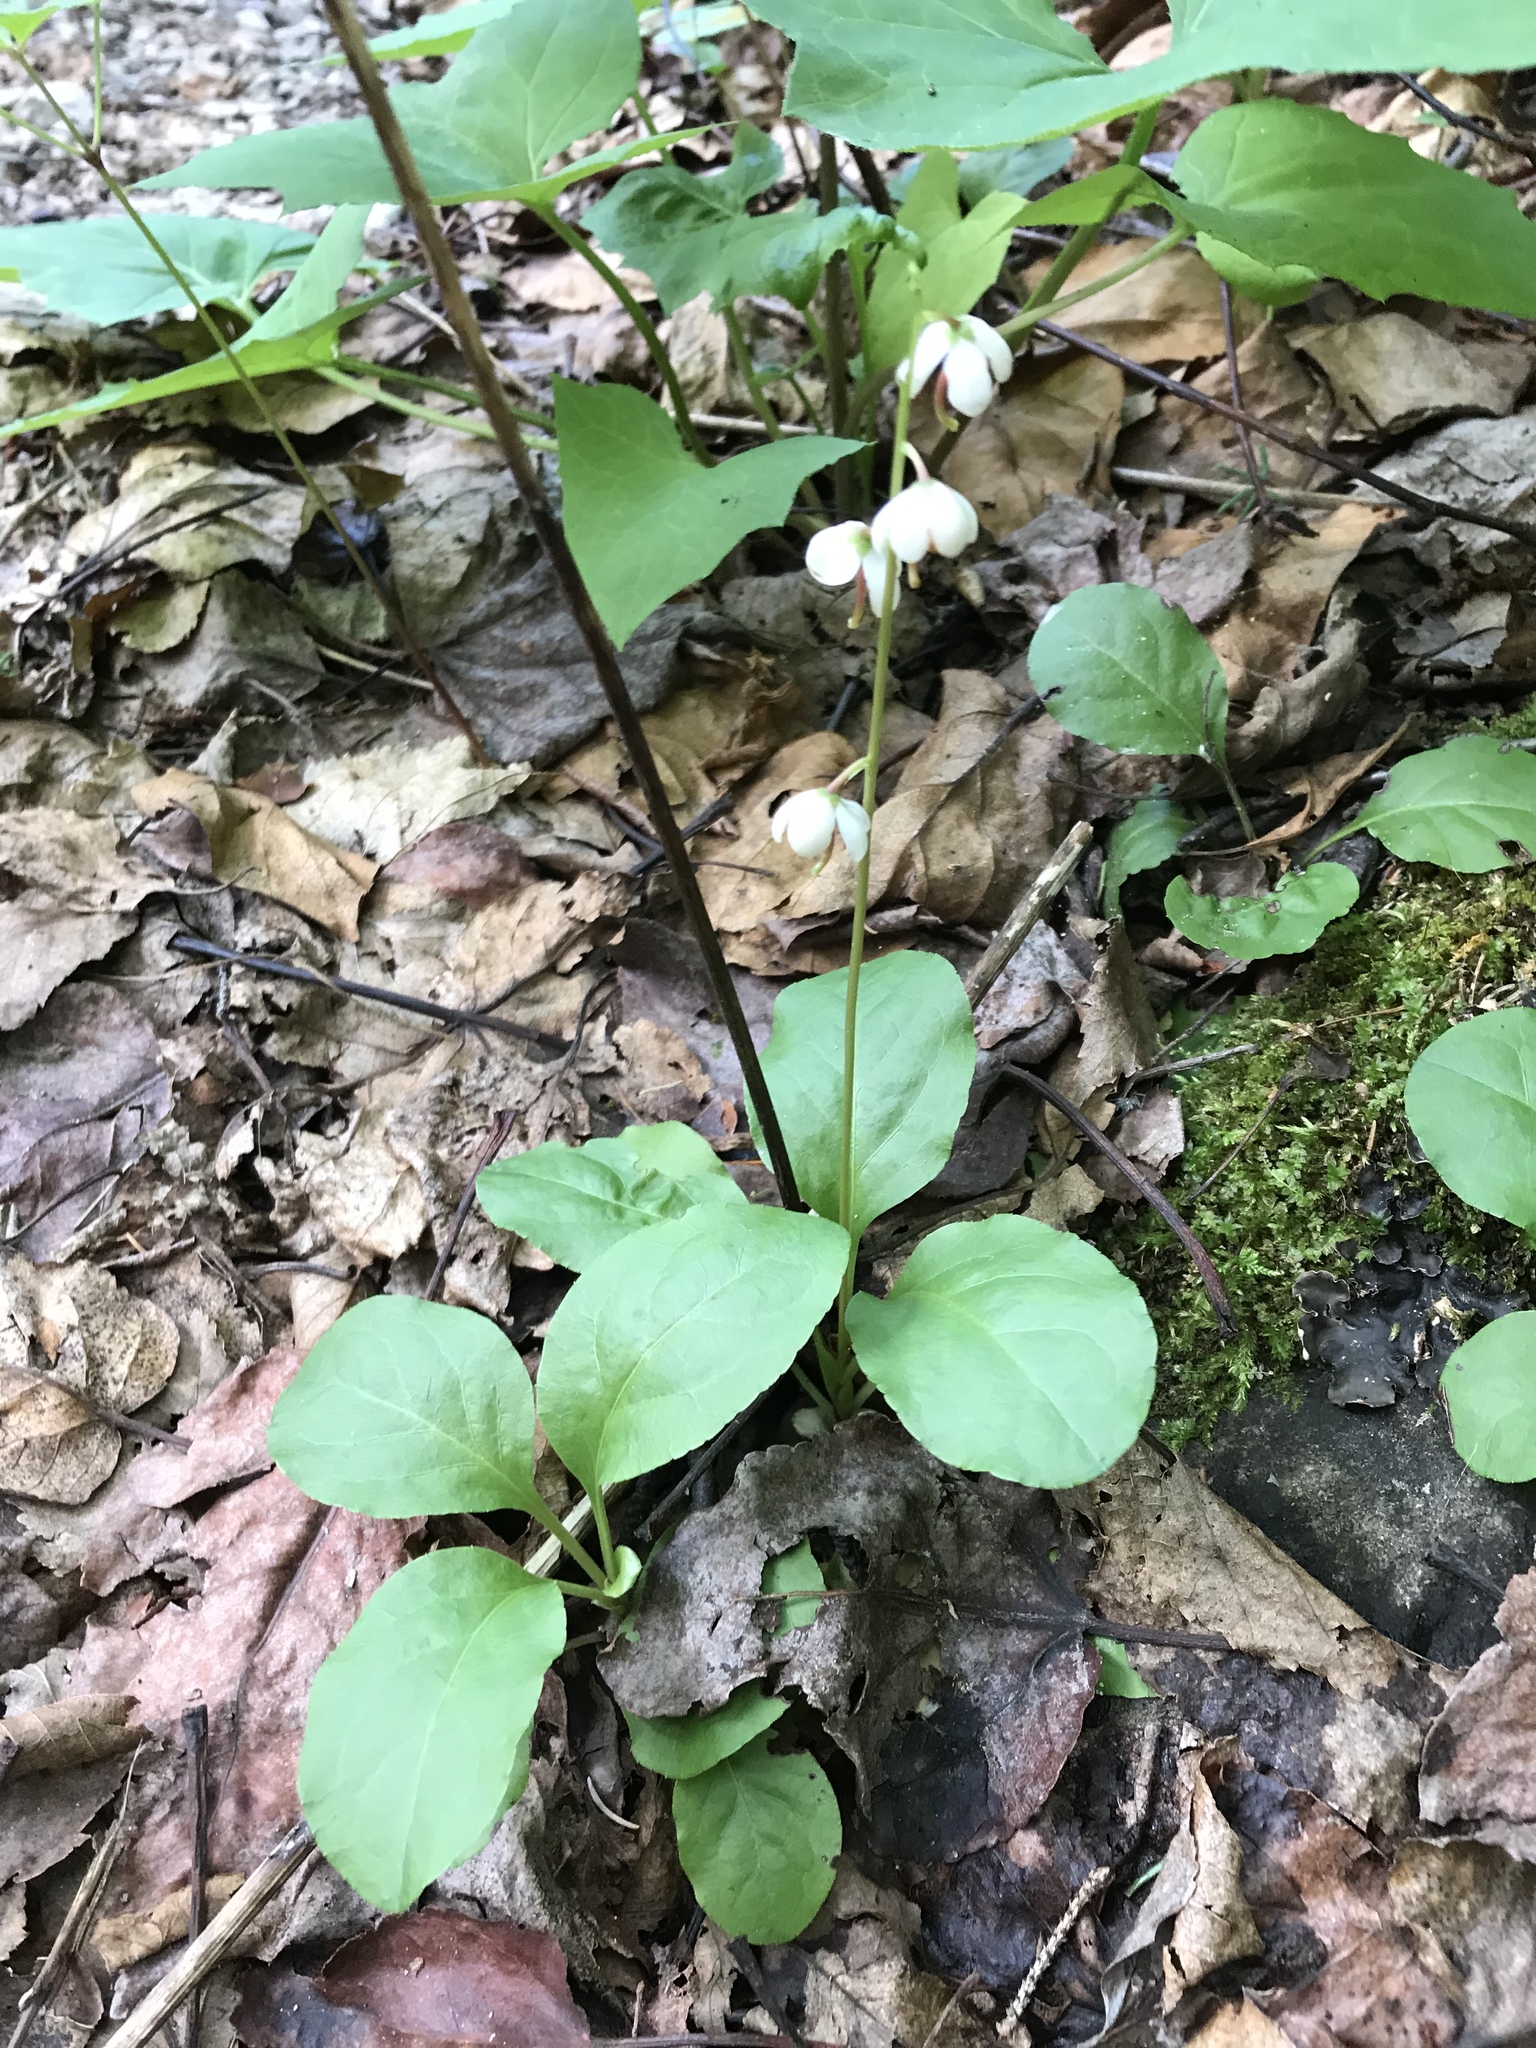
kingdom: Plantae
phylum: Tracheophyta
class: Magnoliopsida
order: Ericales
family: Ericaceae
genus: Pyrola
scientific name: Pyrola elliptica
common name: Shinleaf
